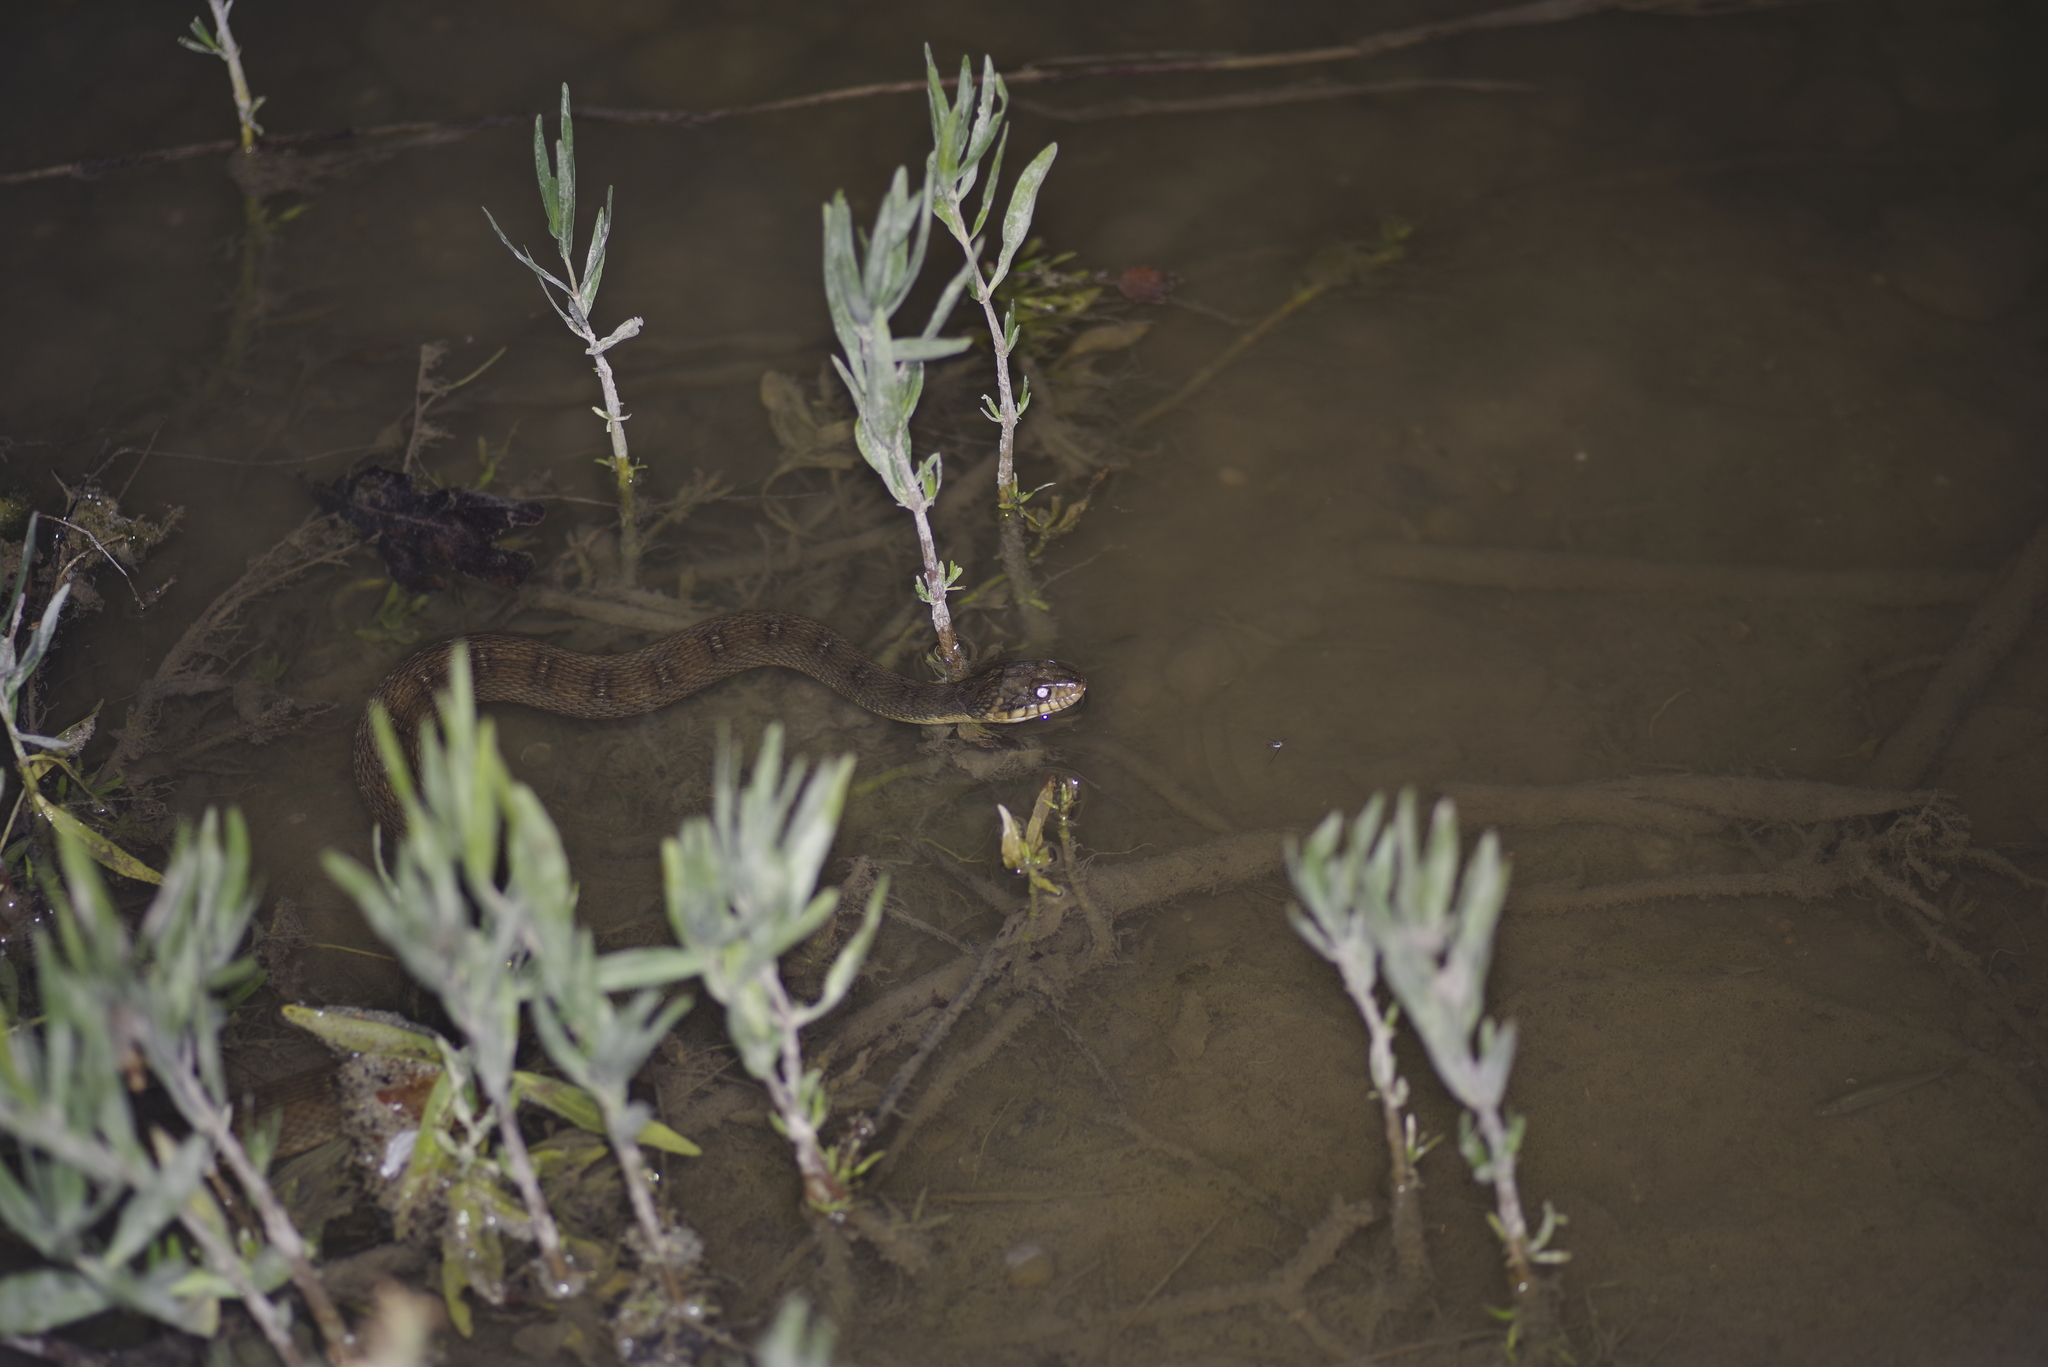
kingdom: Animalia
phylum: Chordata
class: Squamata
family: Colubridae
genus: Nerodia
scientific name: Nerodia erythrogaster
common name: Plainbelly water snake
